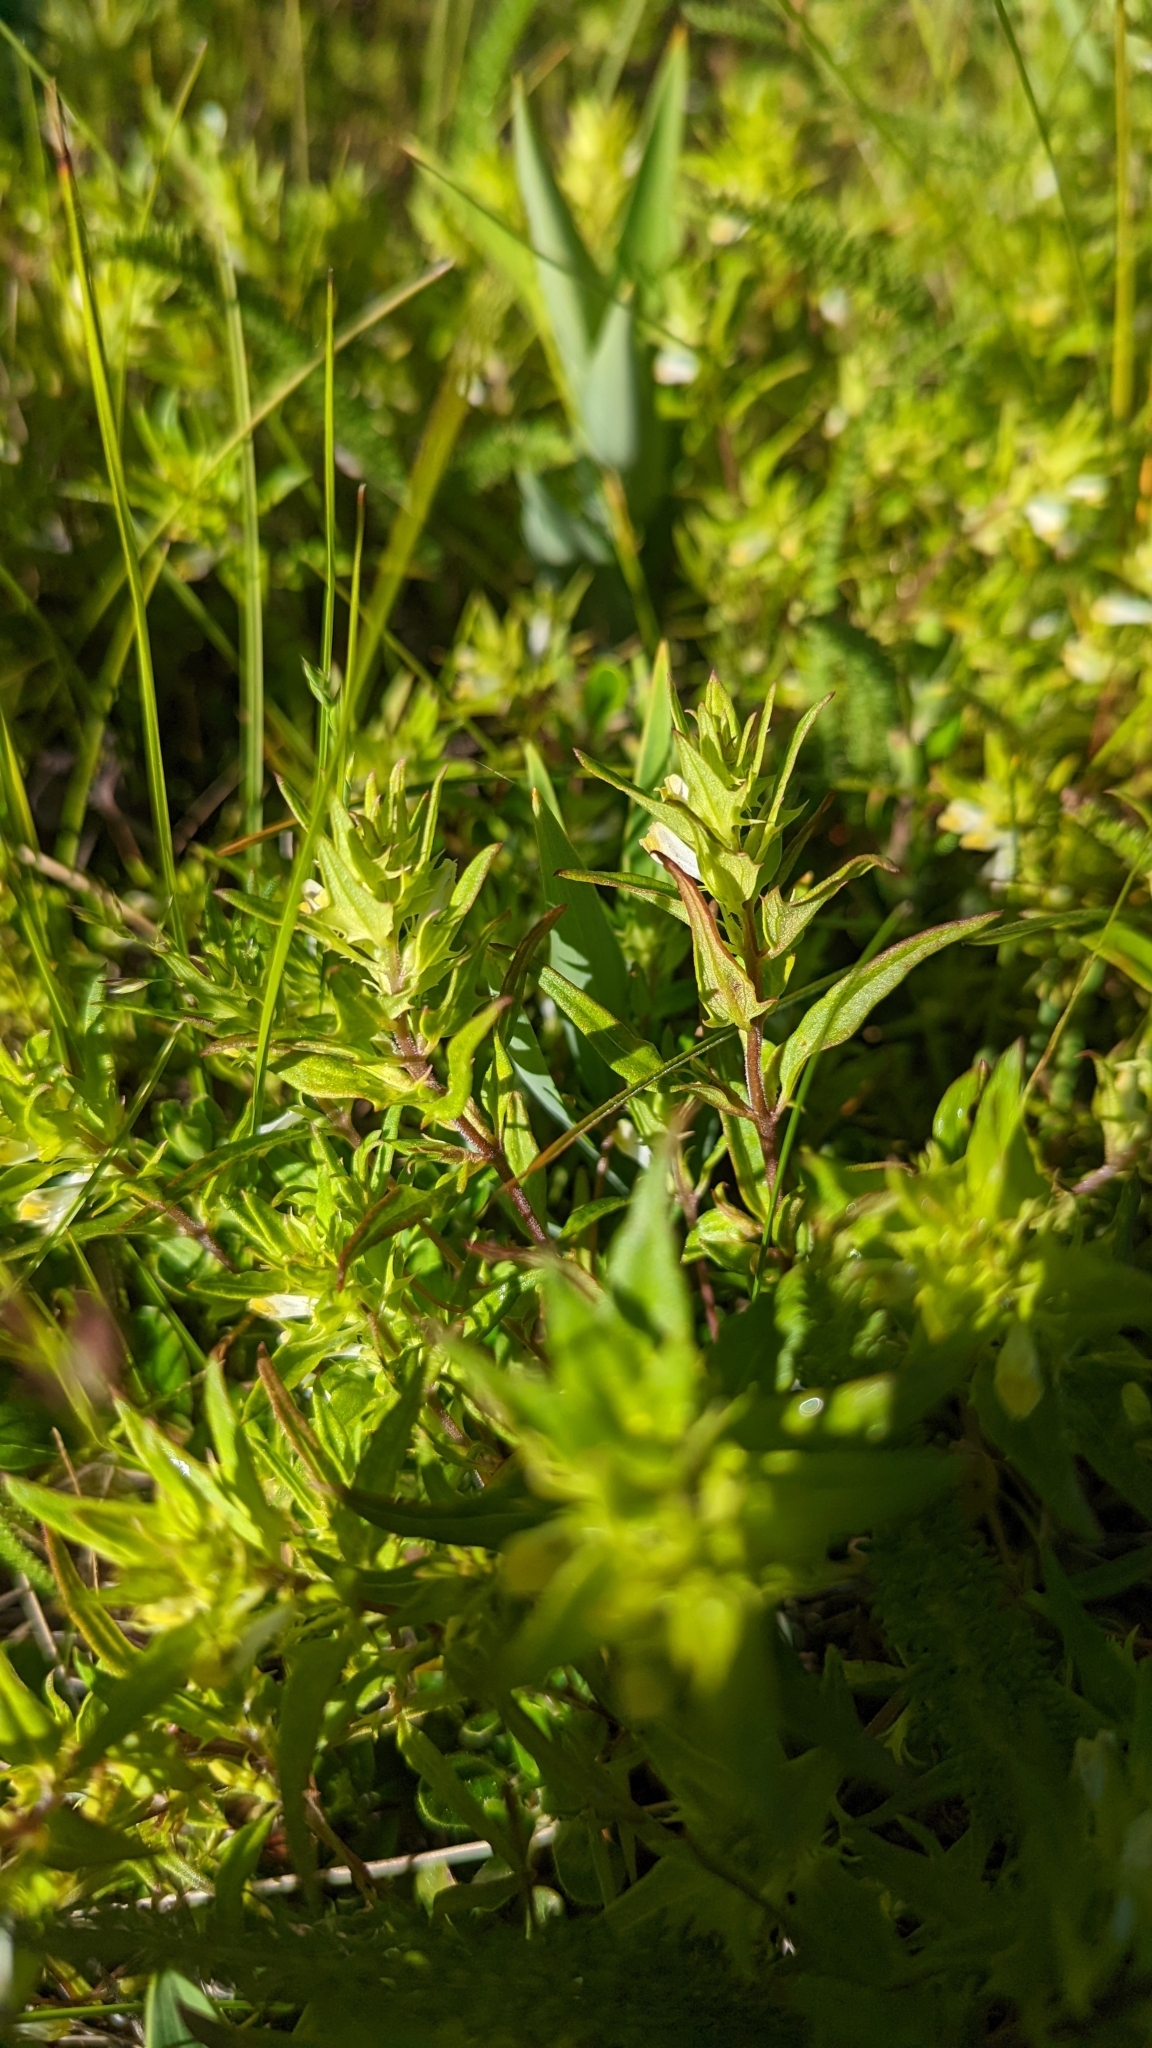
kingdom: Plantae
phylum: Tracheophyta
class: Magnoliopsida
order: Lamiales
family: Orobanchaceae
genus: Melampyrum
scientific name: Melampyrum lineare
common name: American cow-wheat
